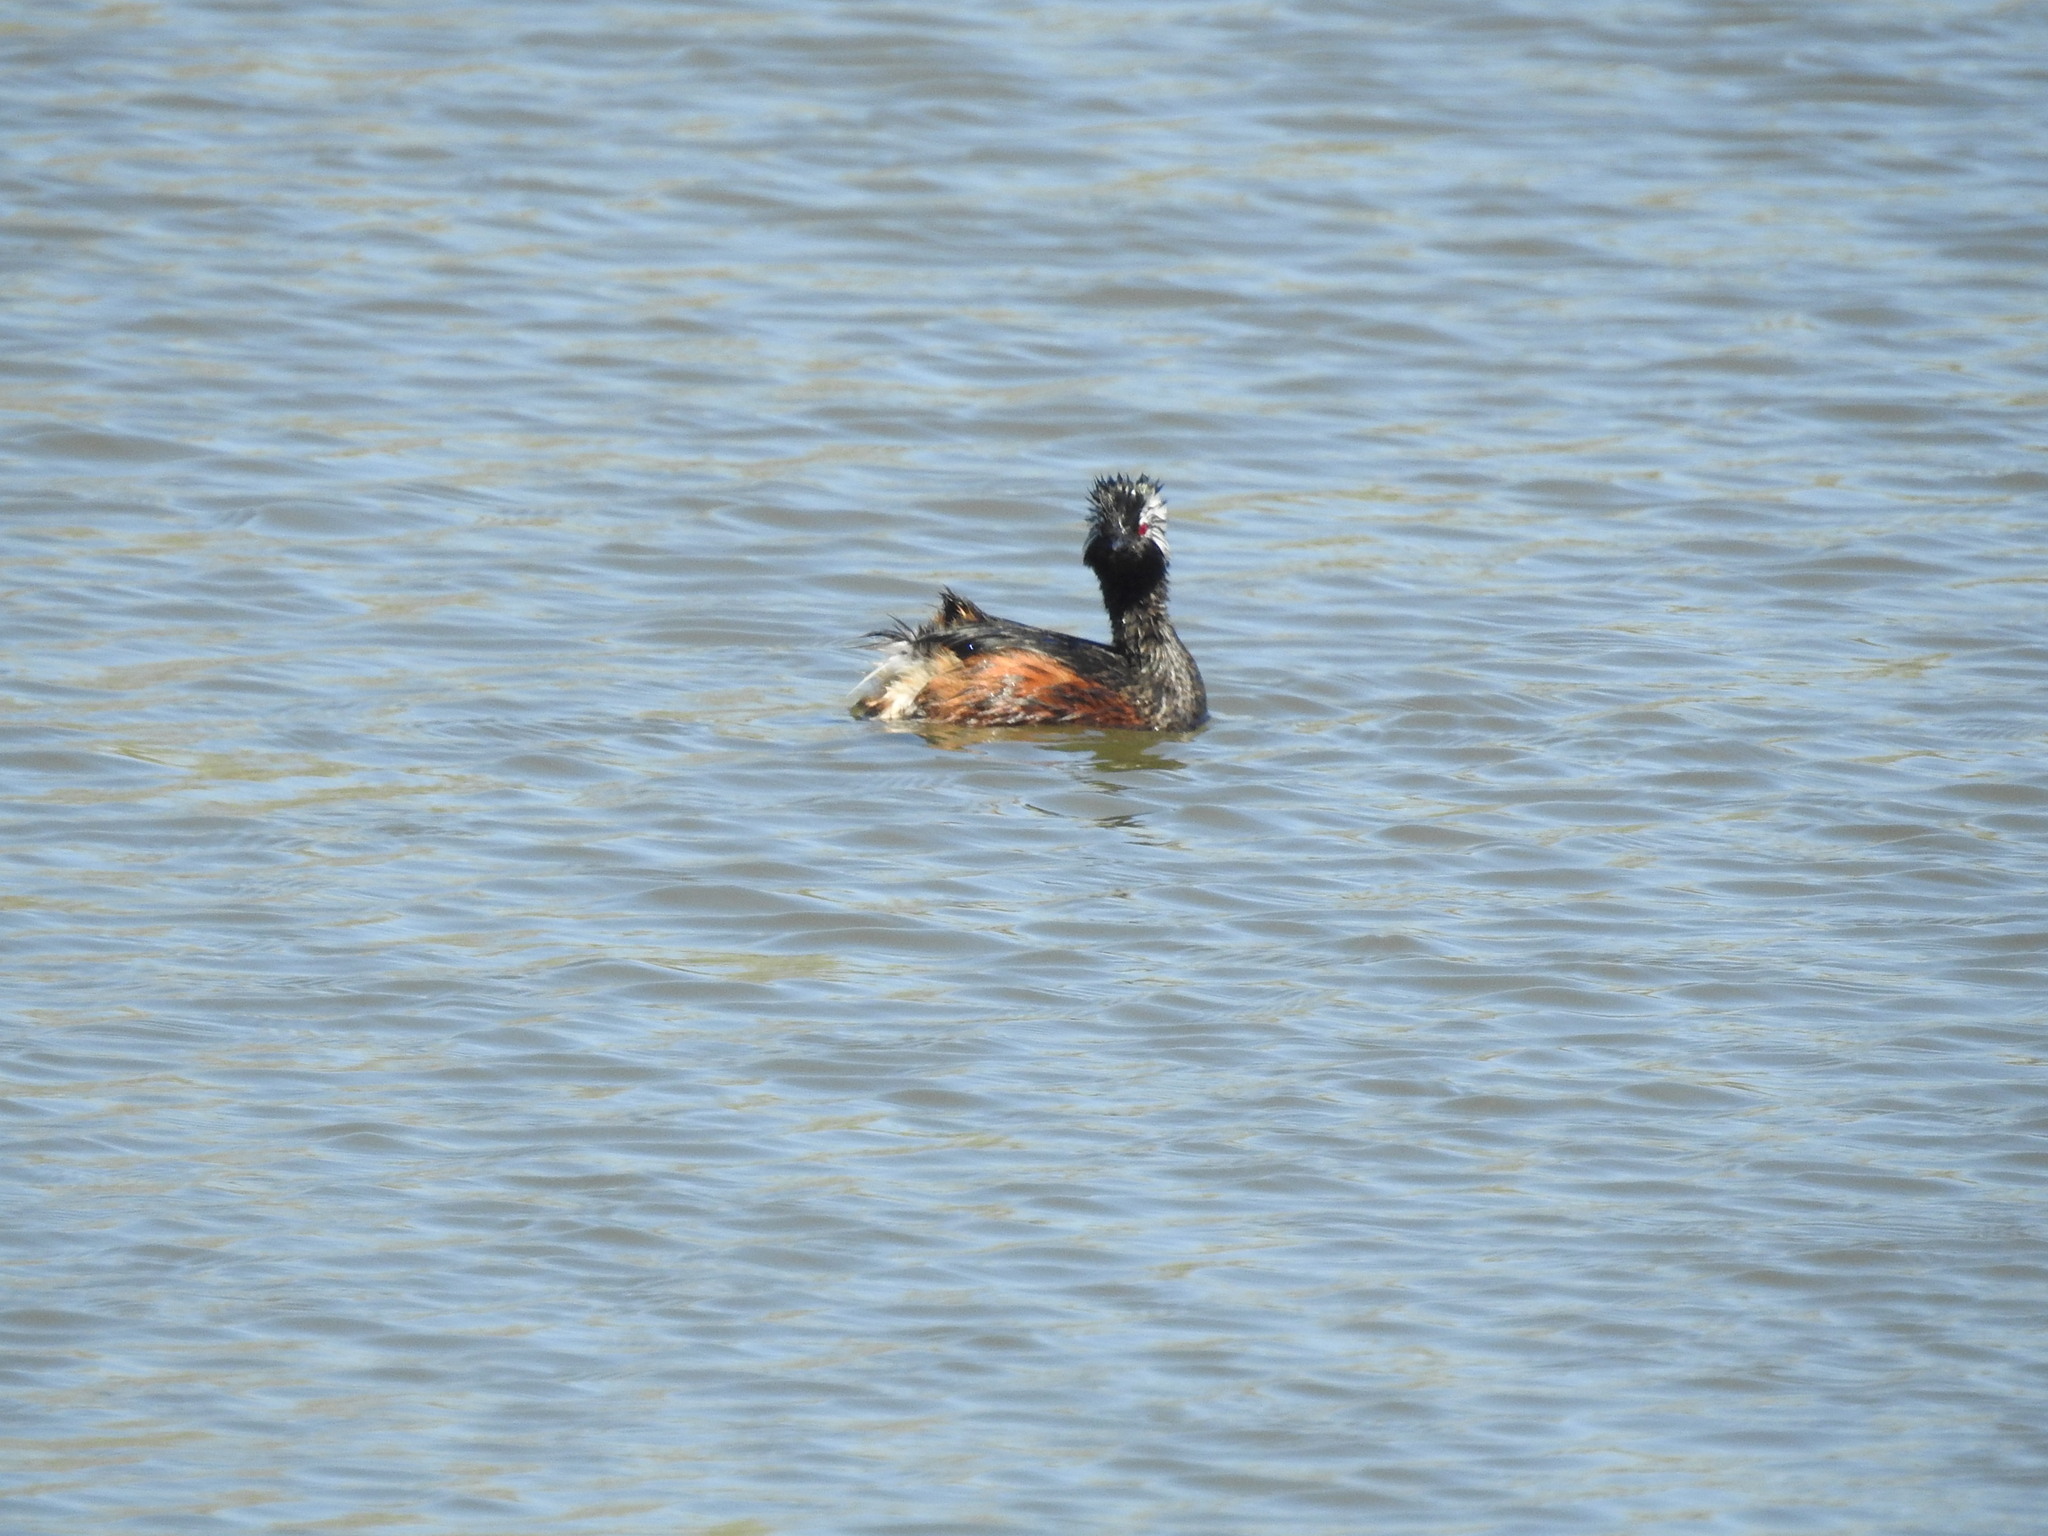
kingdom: Animalia
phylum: Chordata
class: Aves
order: Podicipediformes
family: Podicipedidae
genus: Rollandia
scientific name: Rollandia rolland
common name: White-tufted grebe
